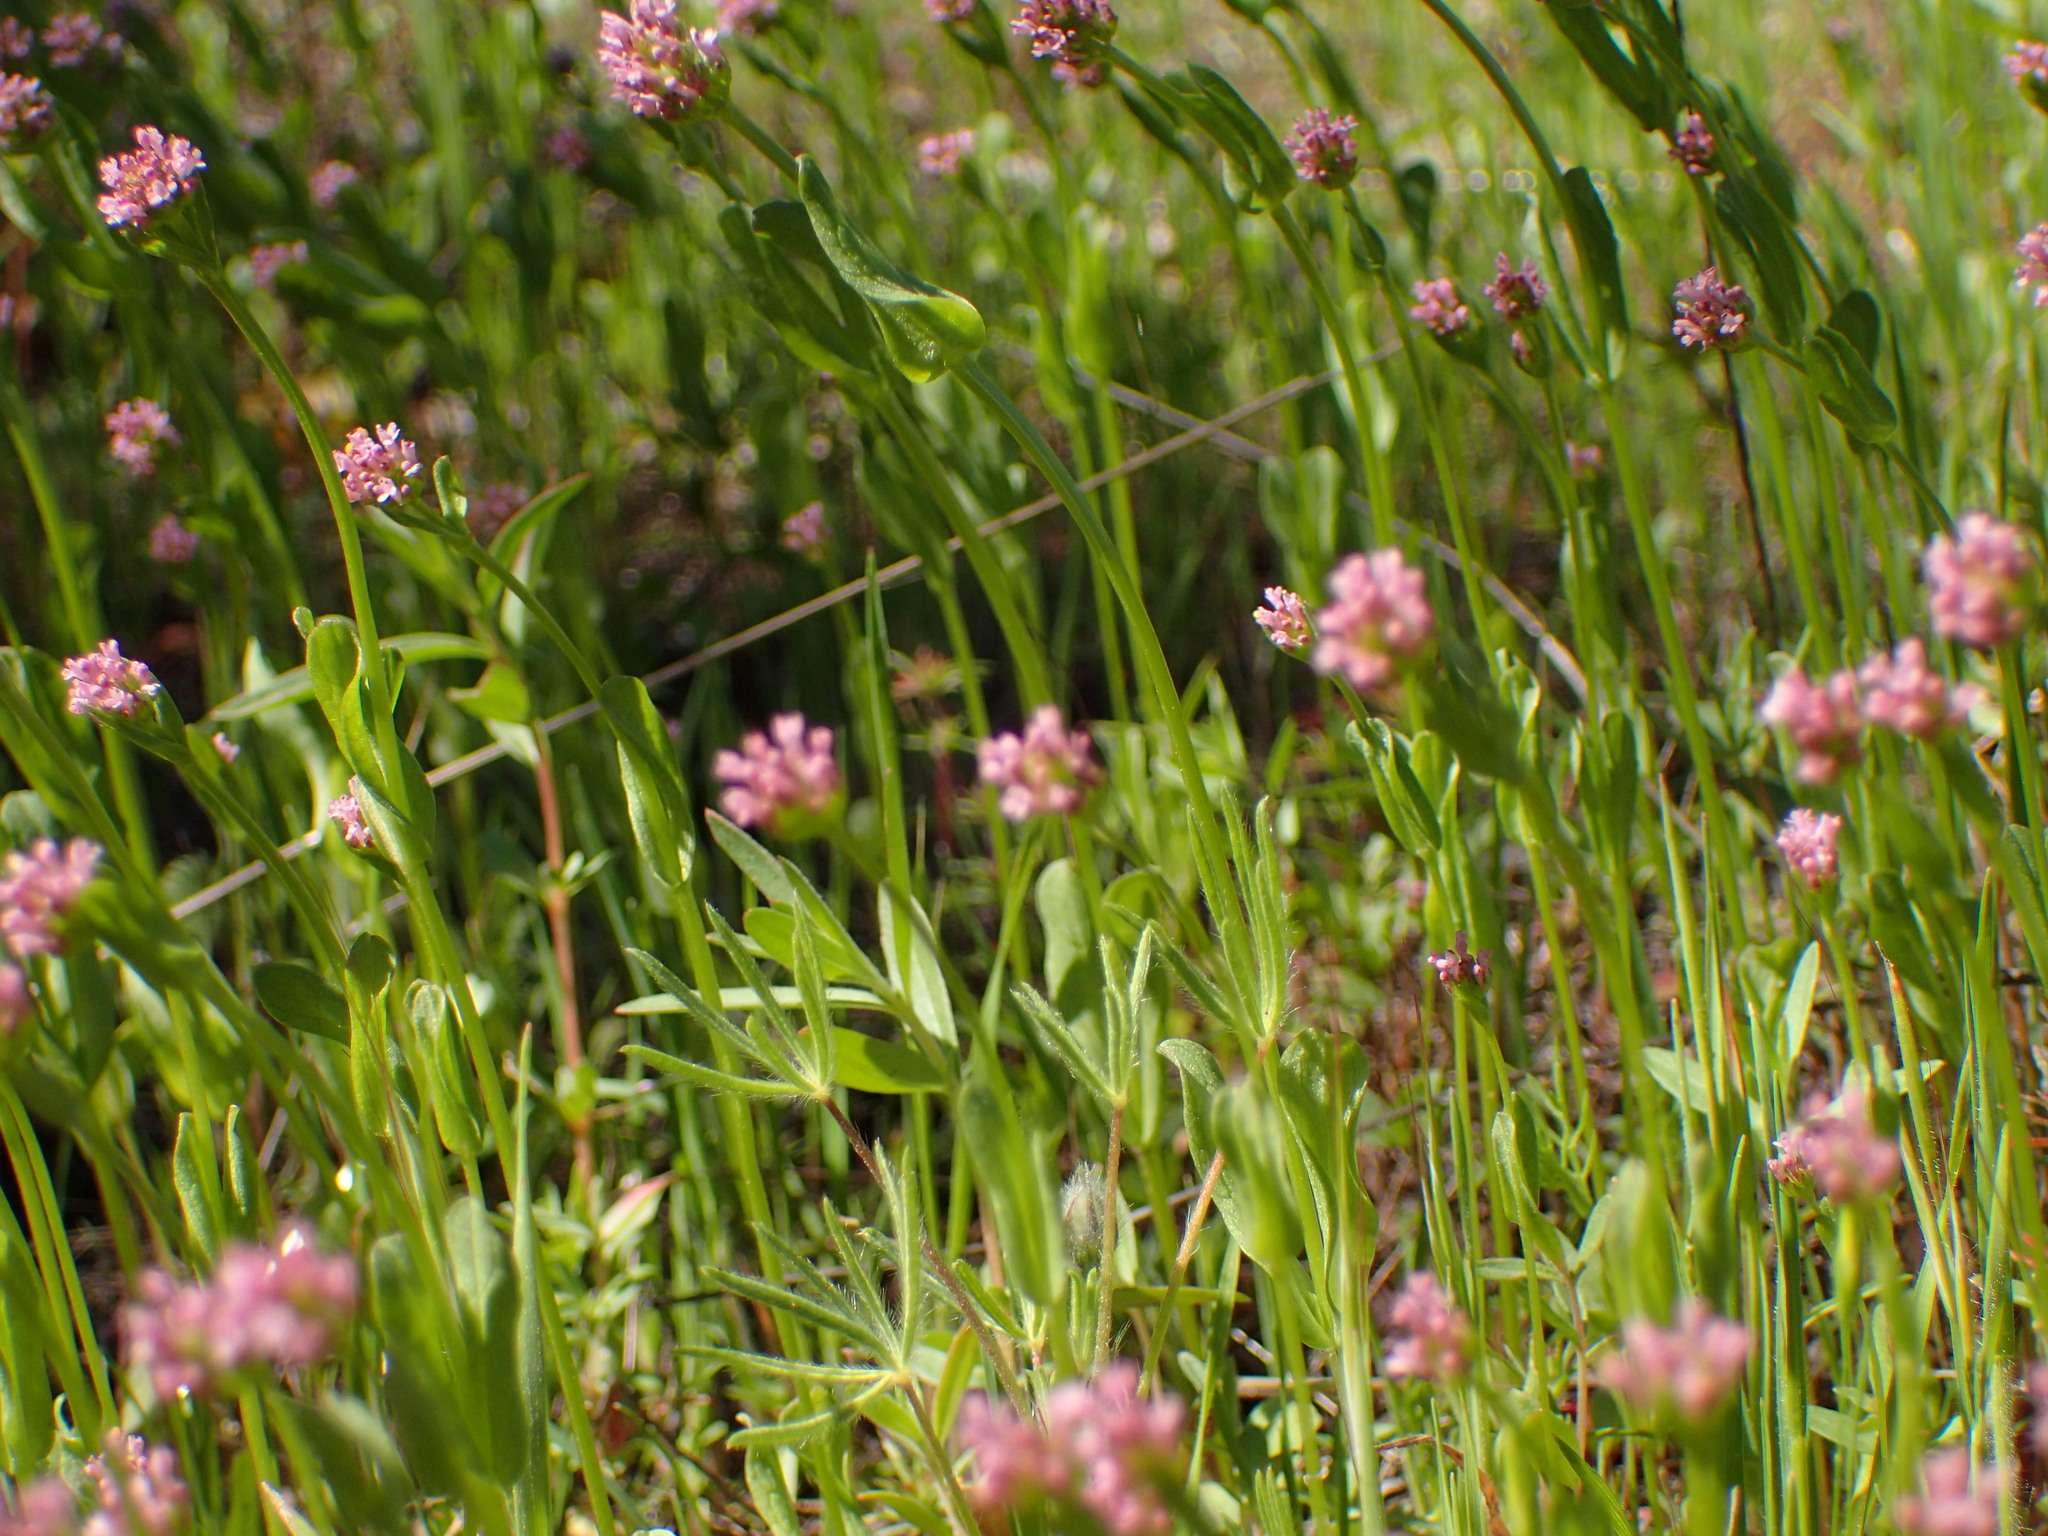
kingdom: Plantae
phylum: Tracheophyta
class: Magnoliopsida
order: Dipsacales
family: Caprifoliaceae
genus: Plectritis
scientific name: Plectritis ciliosa
